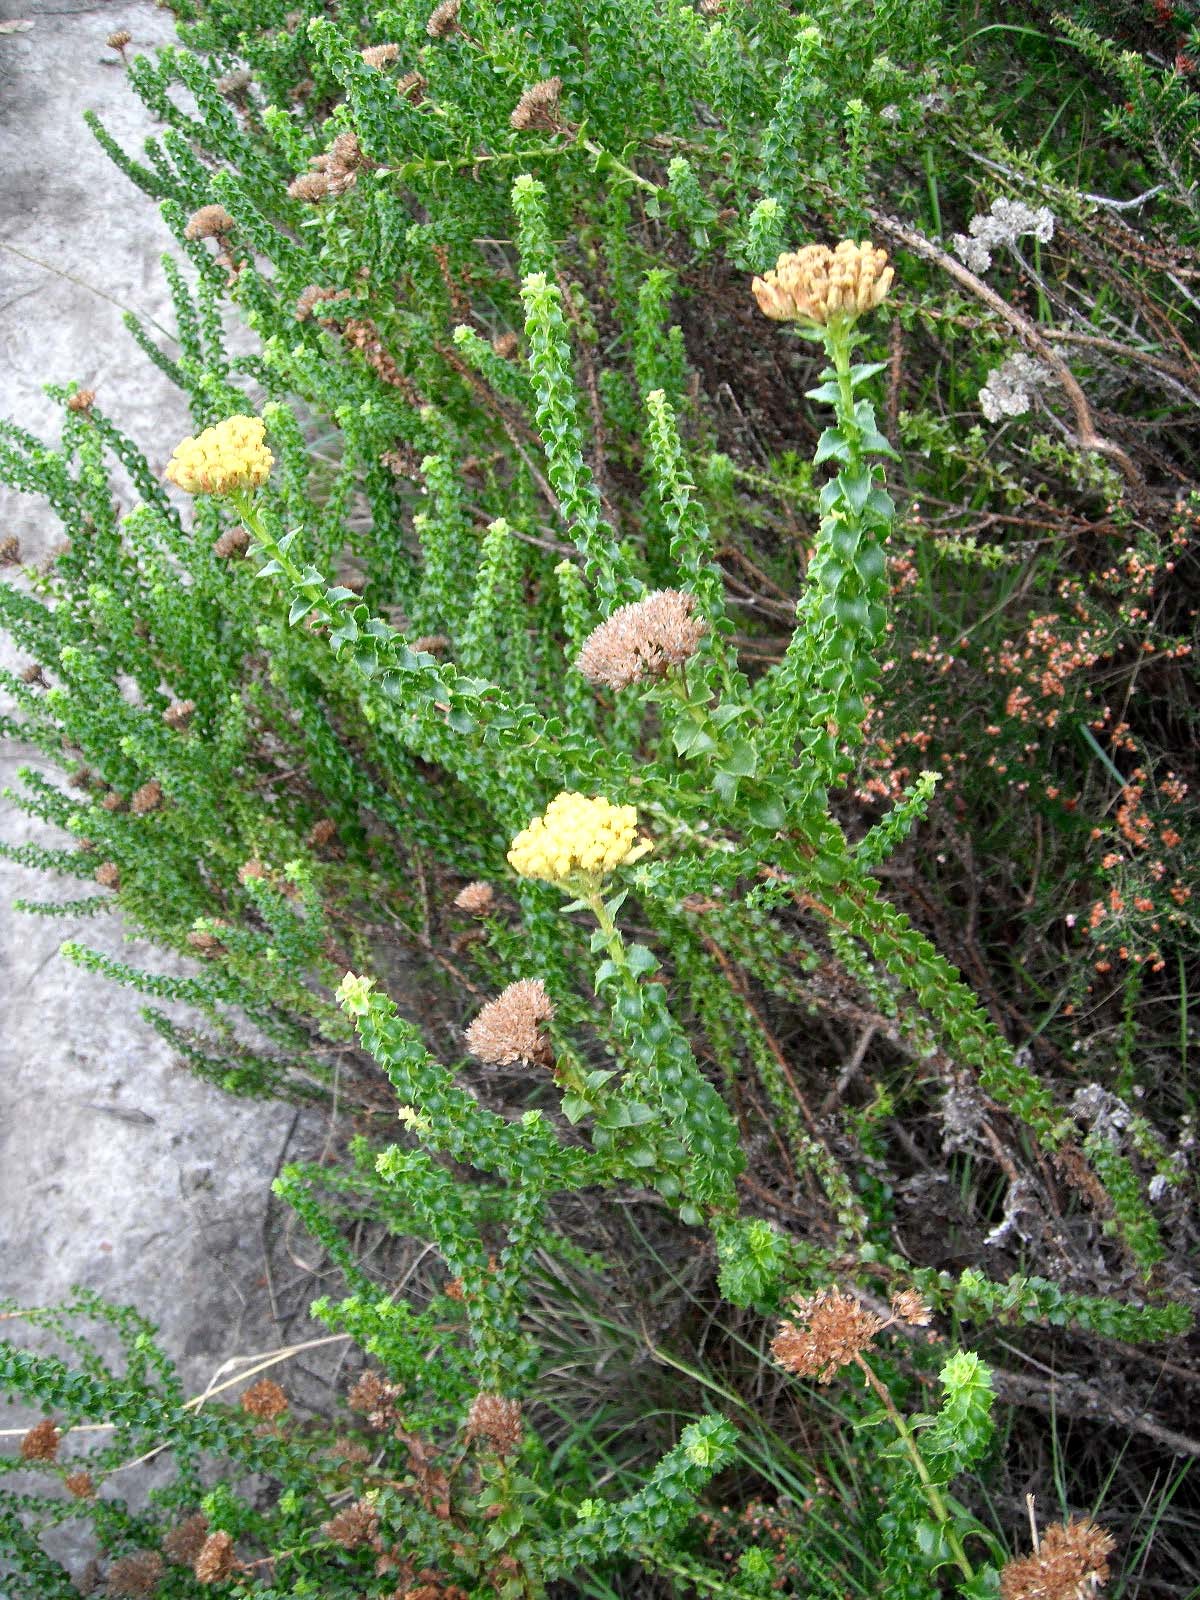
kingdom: Plantae
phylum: Tracheophyta
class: Magnoliopsida
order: Asterales
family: Asteraceae
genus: Athanasia
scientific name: Athanasia dentata
